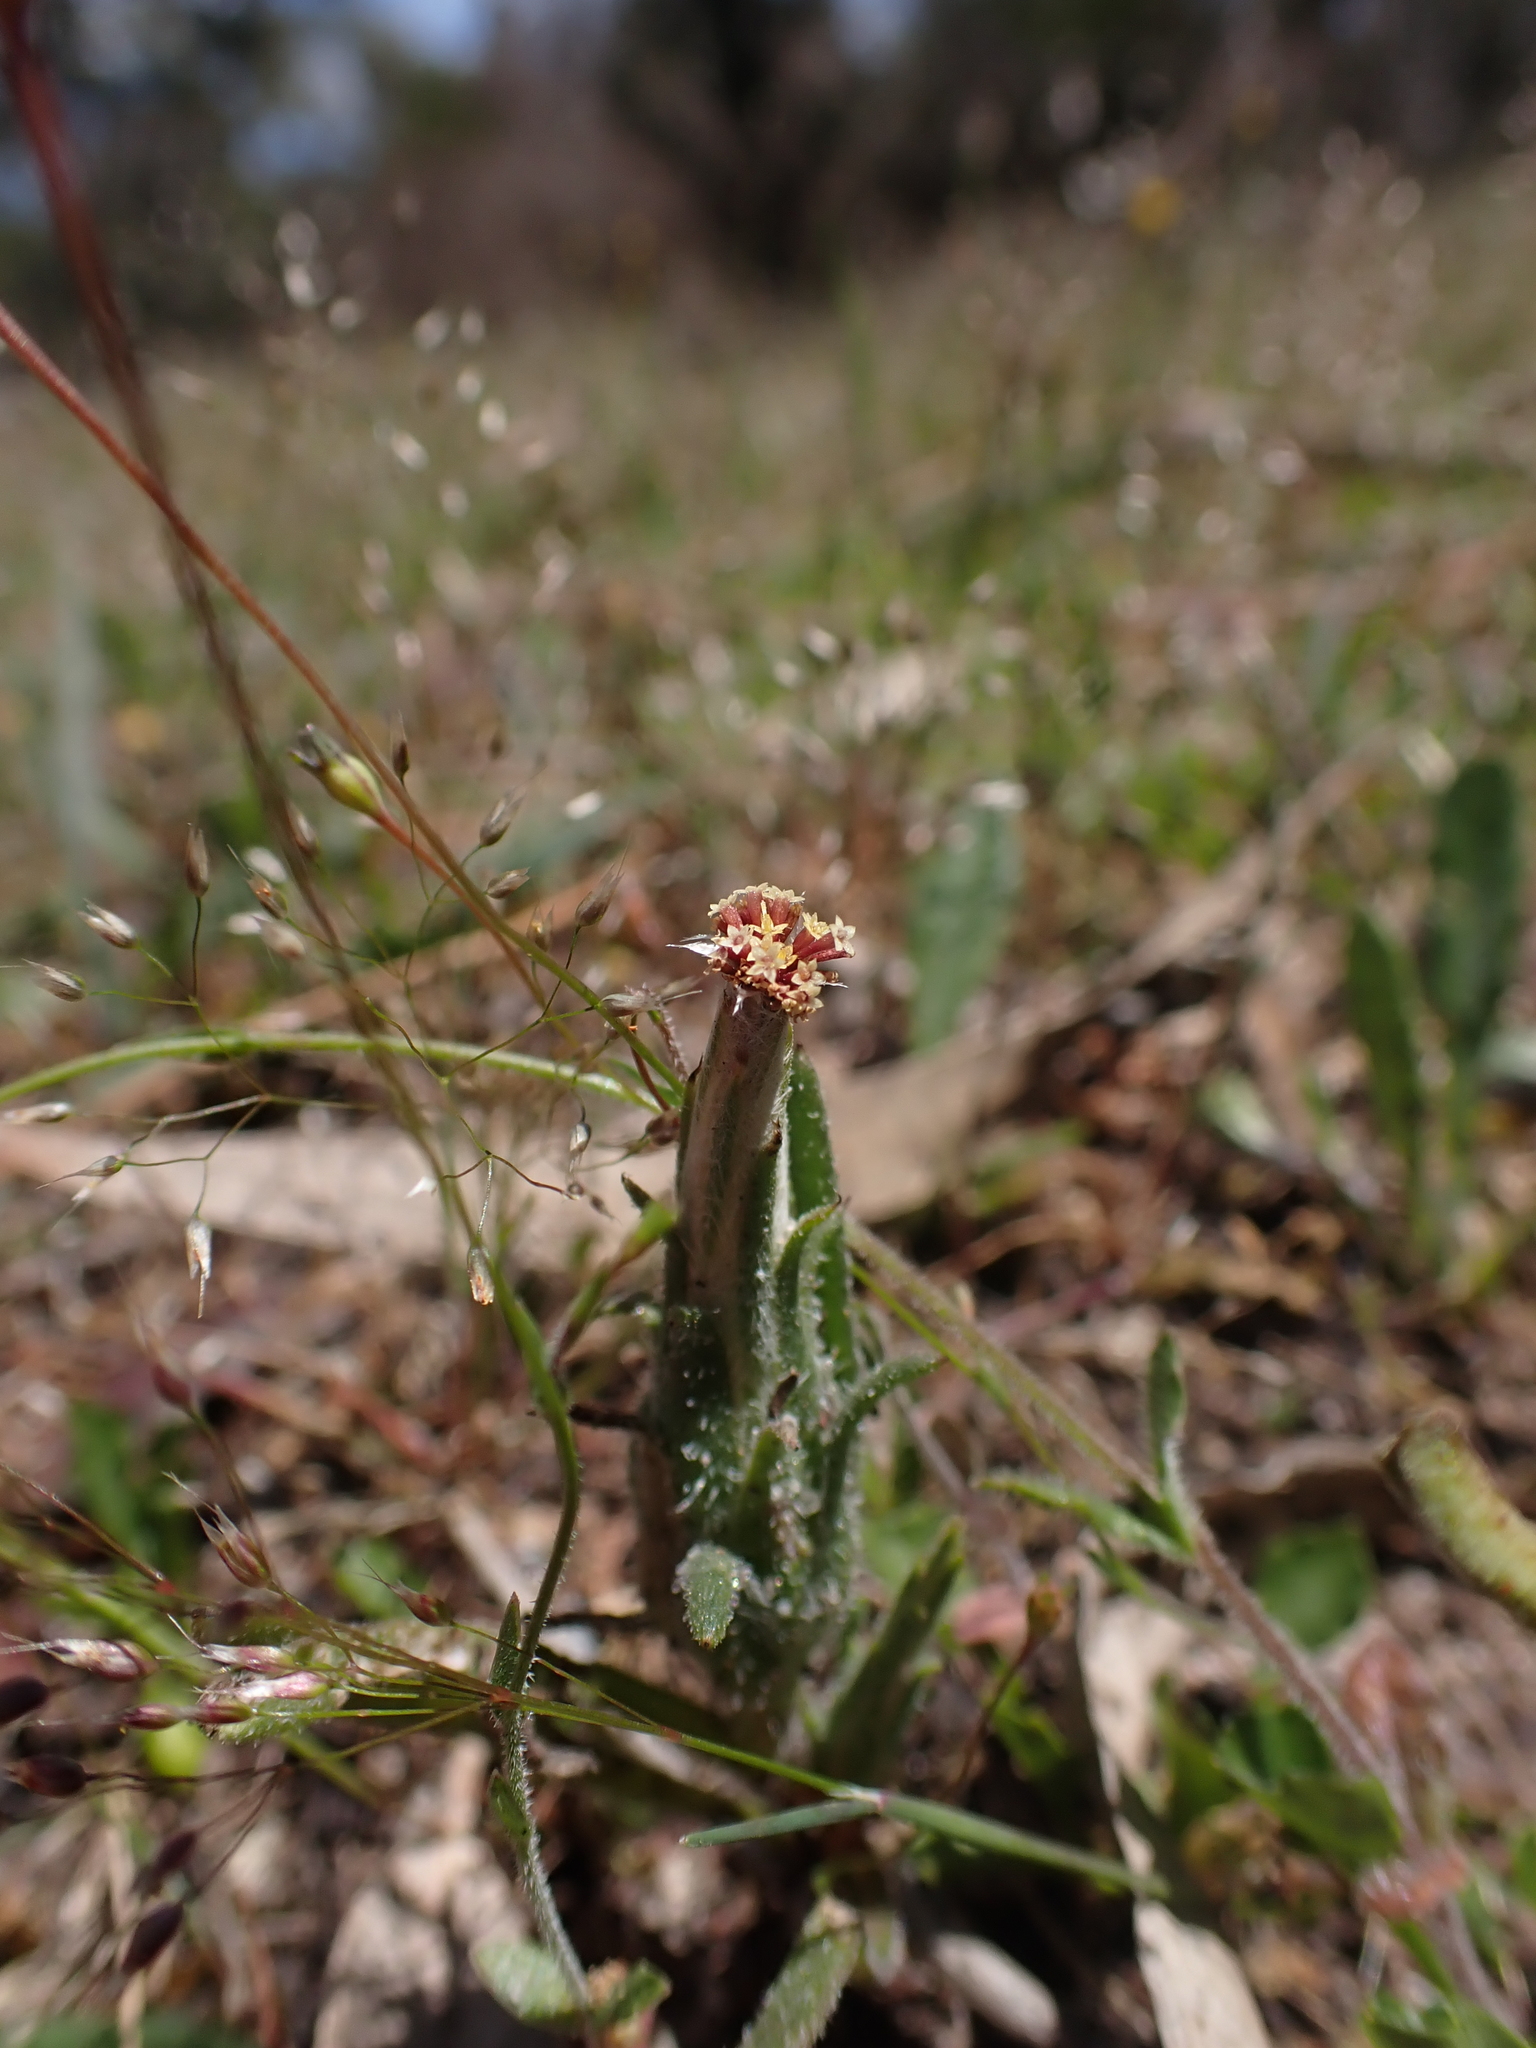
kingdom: Plantae
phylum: Tracheophyta
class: Magnoliopsida
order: Asterales
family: Asteraceae
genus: Podotheca
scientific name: Podotheca angustifolia
